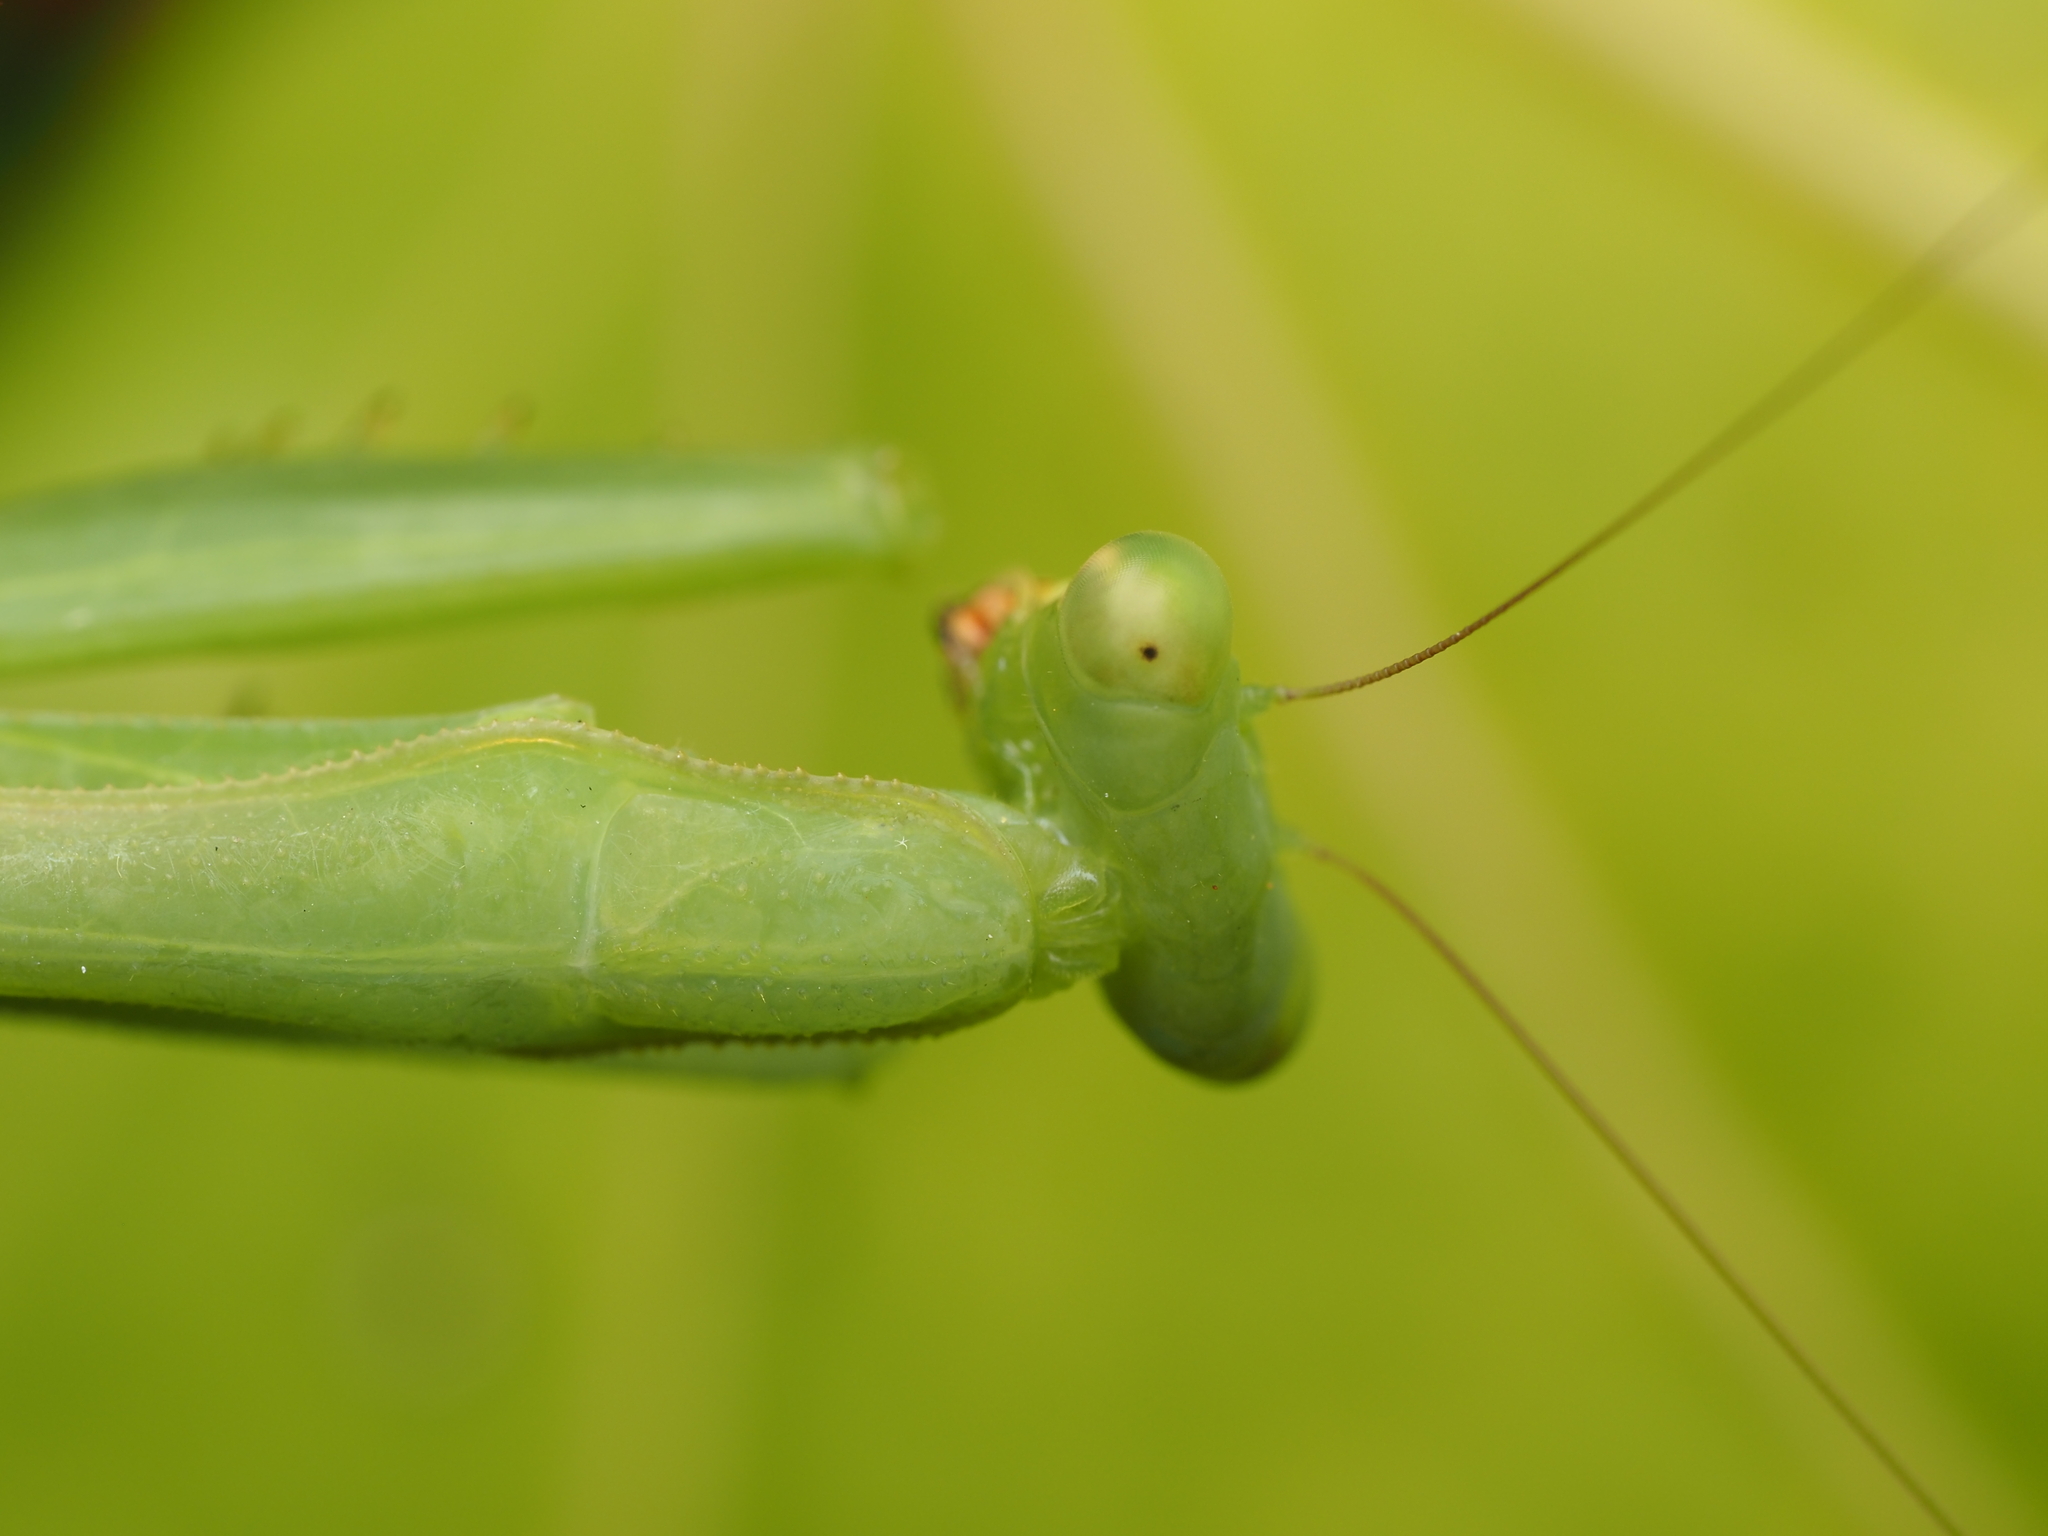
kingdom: Animalia
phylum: Arthropoda
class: Insecta
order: Mantodea
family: Miomantidae
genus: Miomantis
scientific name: Miomantis caffra
